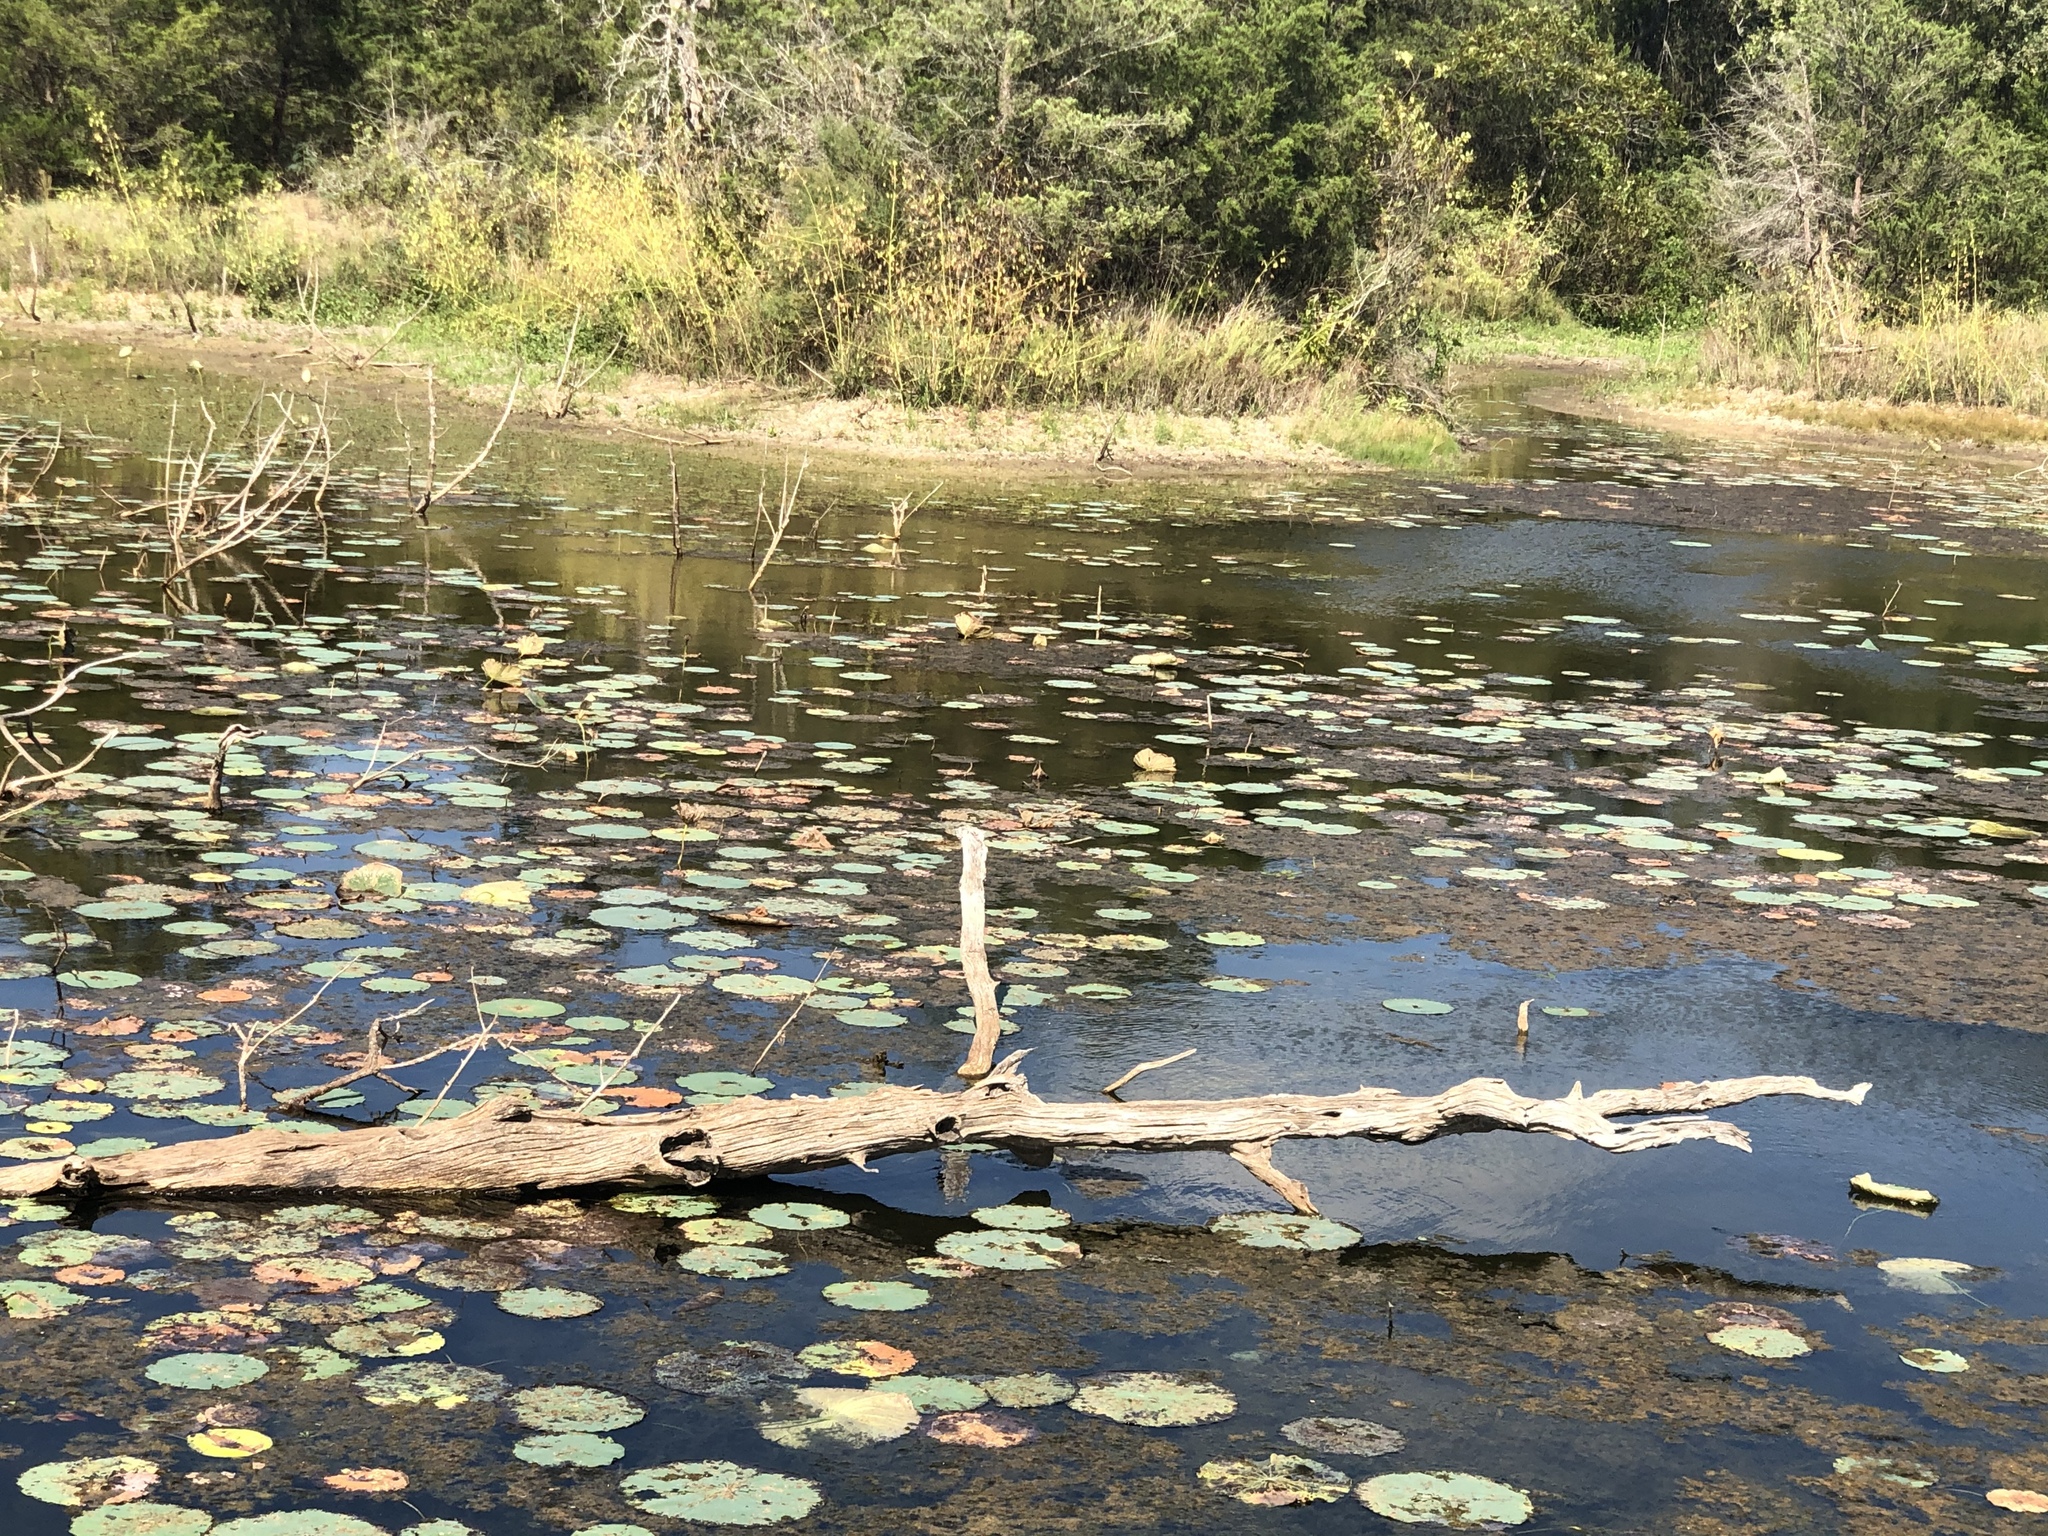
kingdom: Plantae
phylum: Tracheophyta
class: Magnoliopsida
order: Proteales
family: Nelumbonaceae
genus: Nelumbo
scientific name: Nelumbo lutea
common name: American lotus
